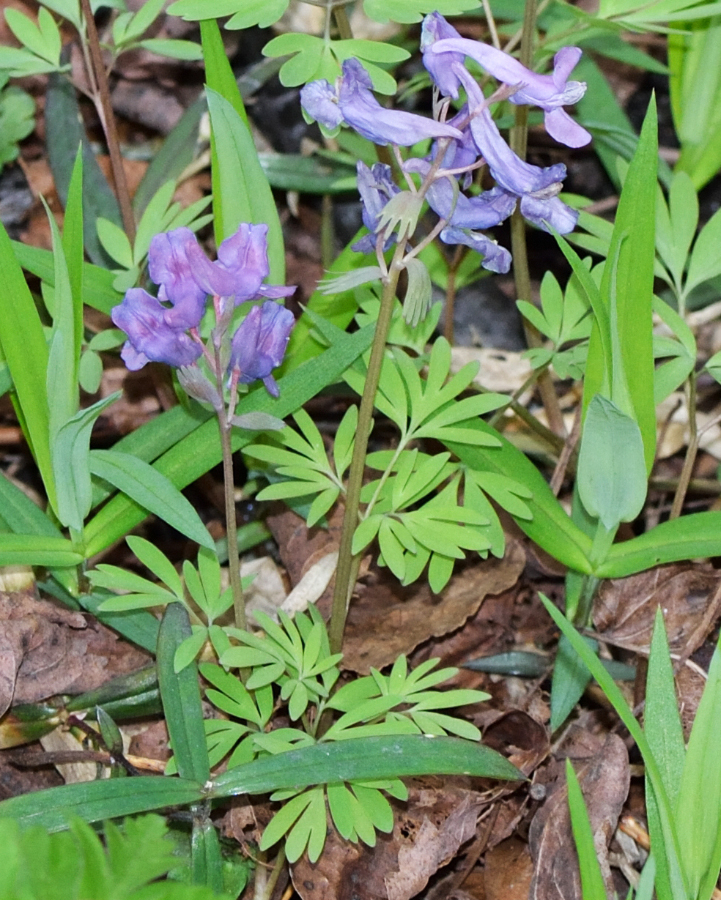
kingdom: Plantae
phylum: Tracheophyta
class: Magnoliopsida
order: Ranunculales
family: Papaveraceae
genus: Corydalis
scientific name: Corydalis solida
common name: Bird-in-a-bush
